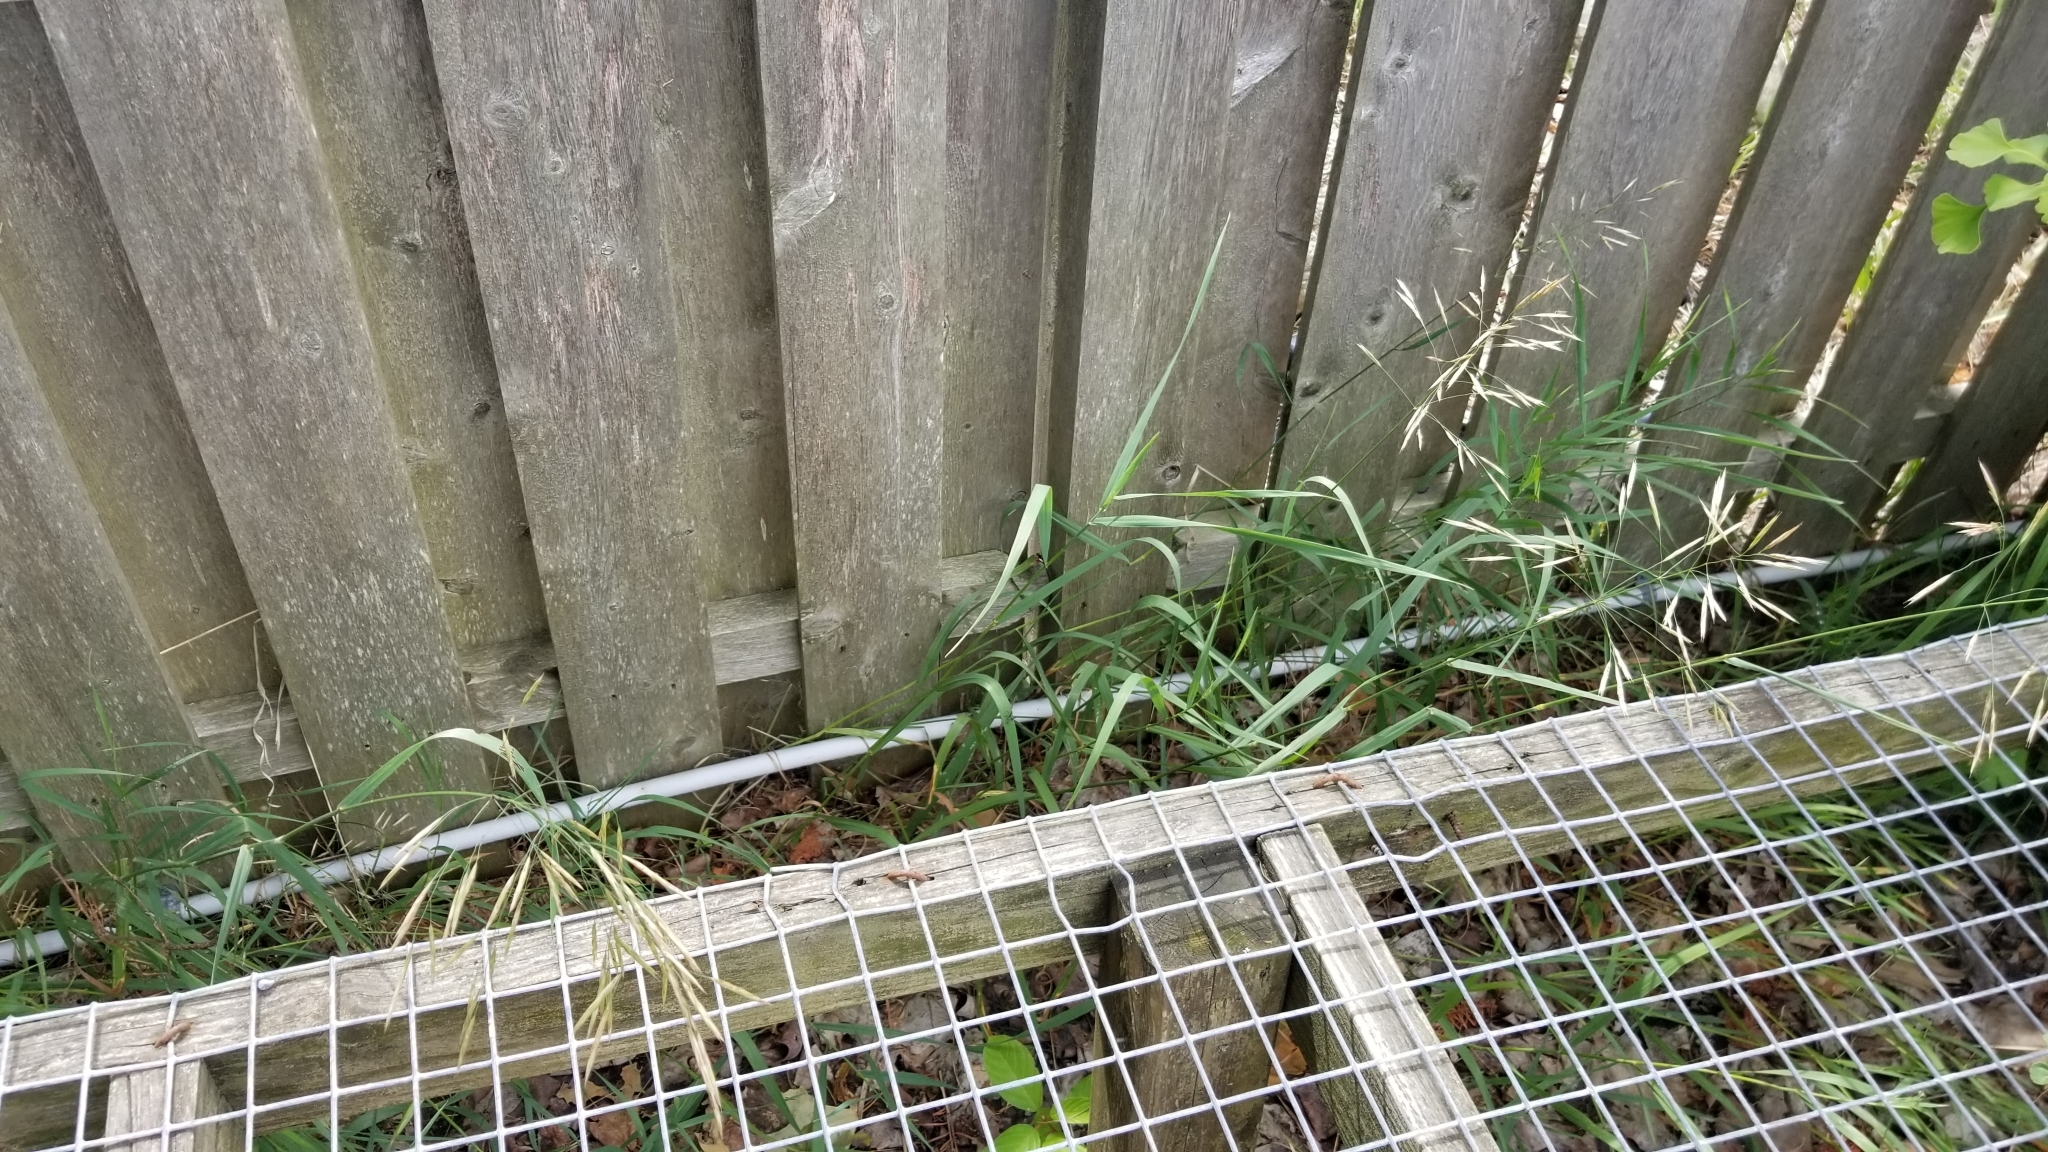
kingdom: Plantae
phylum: Tracheophyta
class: Liliopsida
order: Poales
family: Poaceae
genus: Bromus
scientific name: Bromus inermis
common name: Smooth brome
